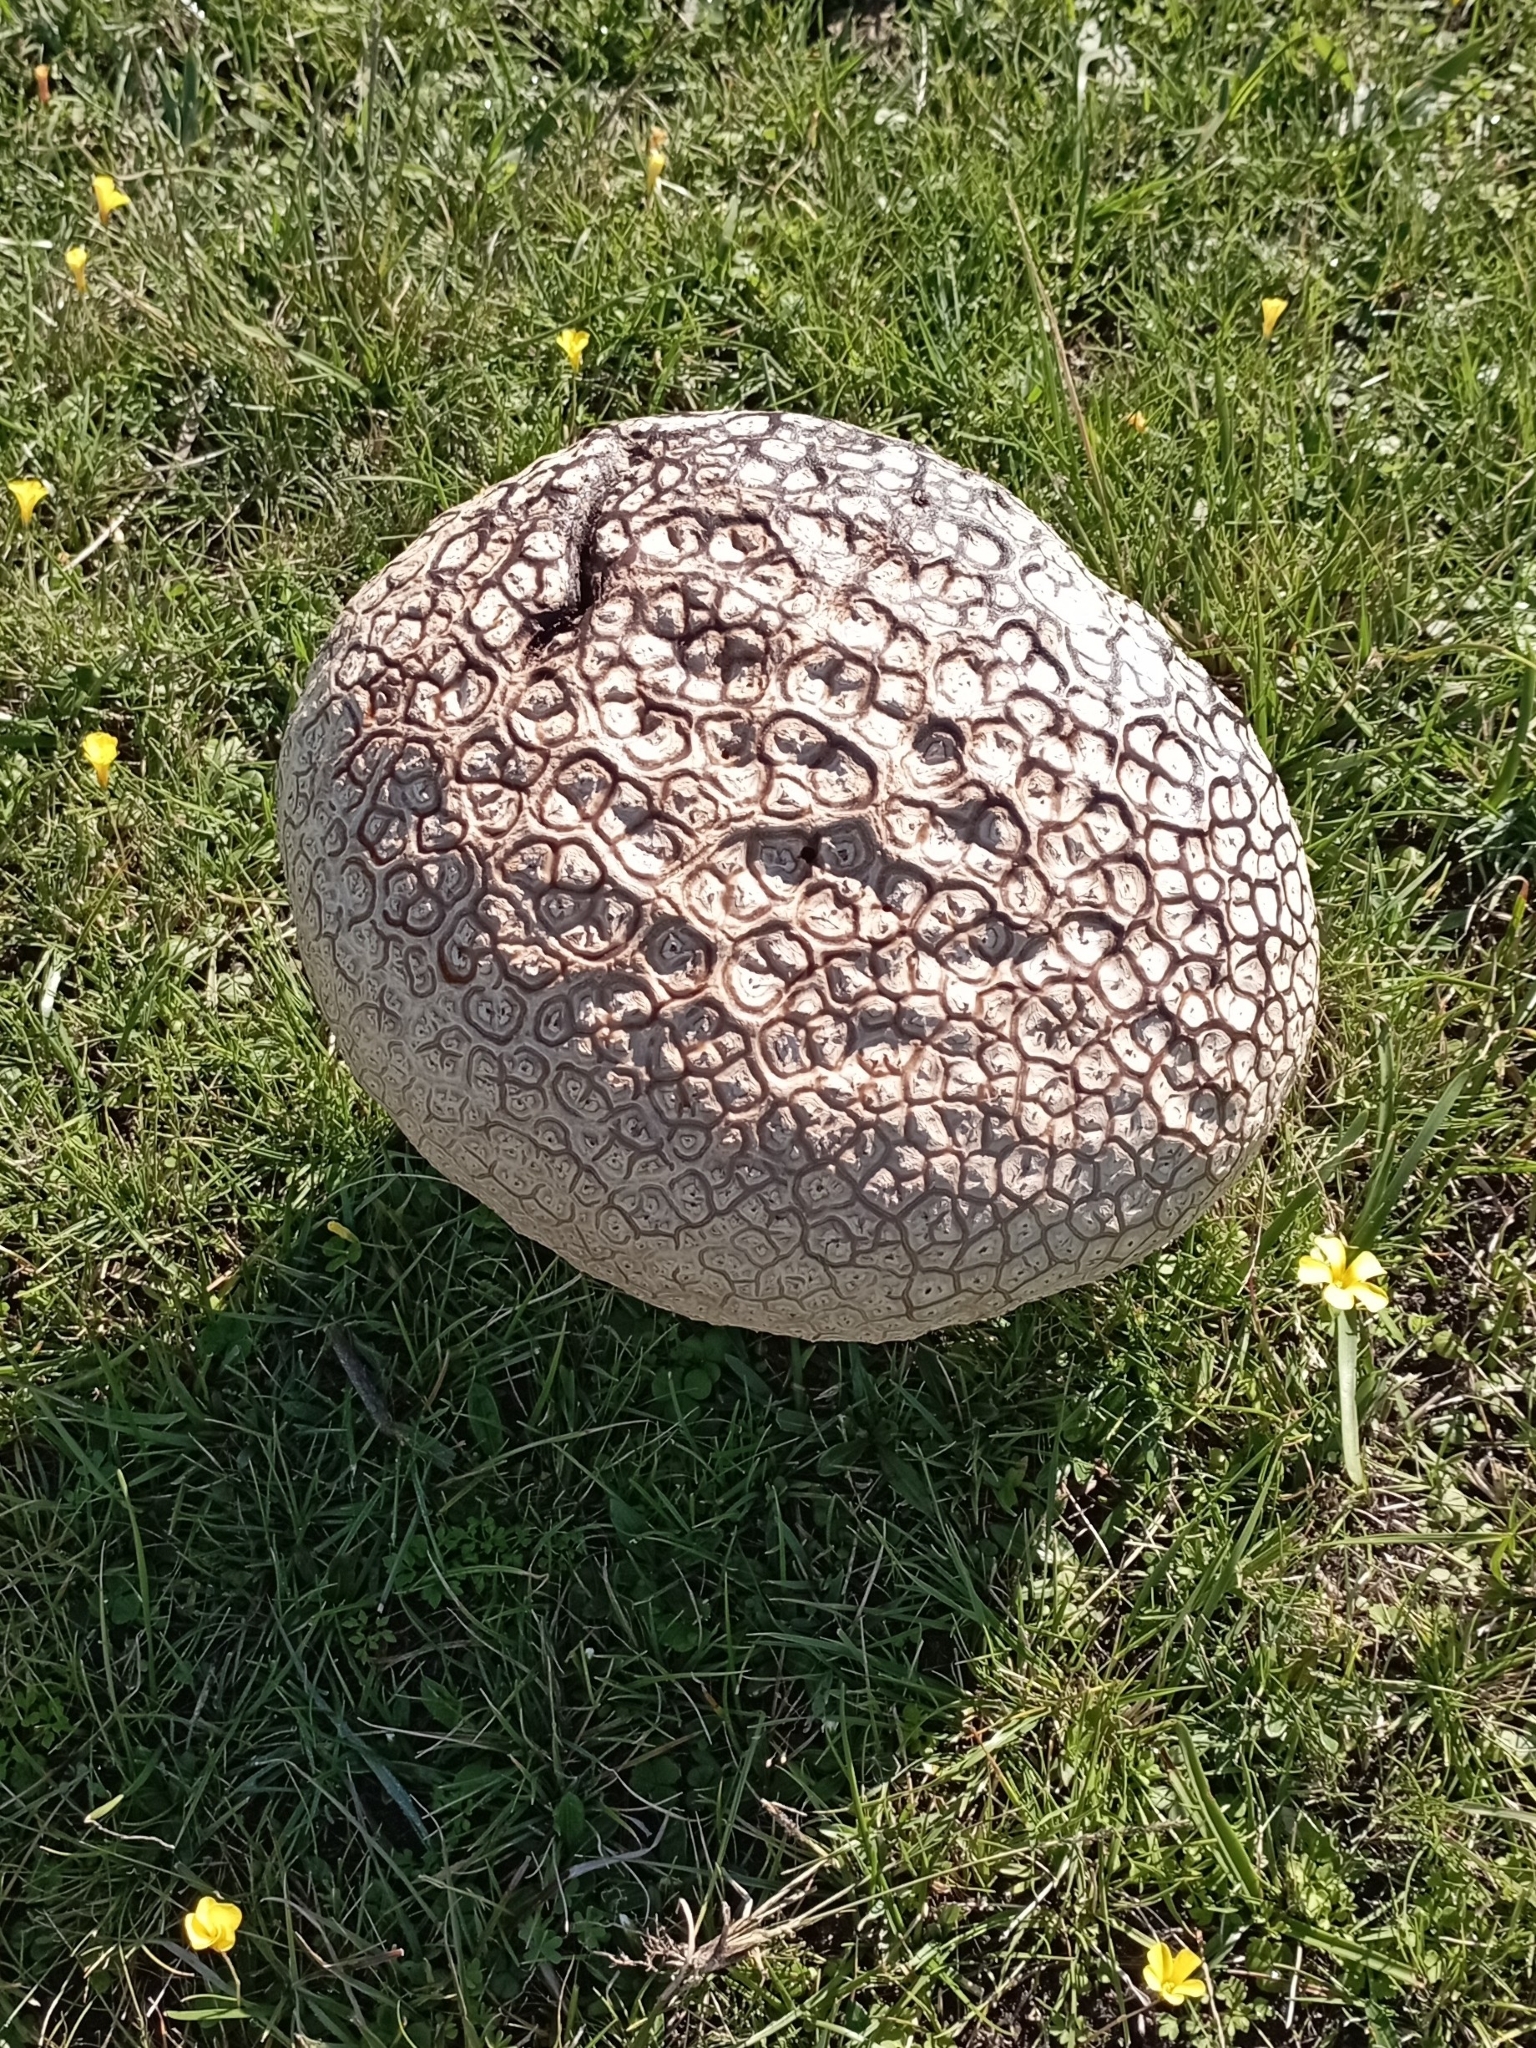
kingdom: Fungi
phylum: Basidiomycota
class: Agaricomycetes
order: Agaricales
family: Lycoperdaceae
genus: Calvatia
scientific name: Calvatia cyathiformis
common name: Purple-spored puffball
